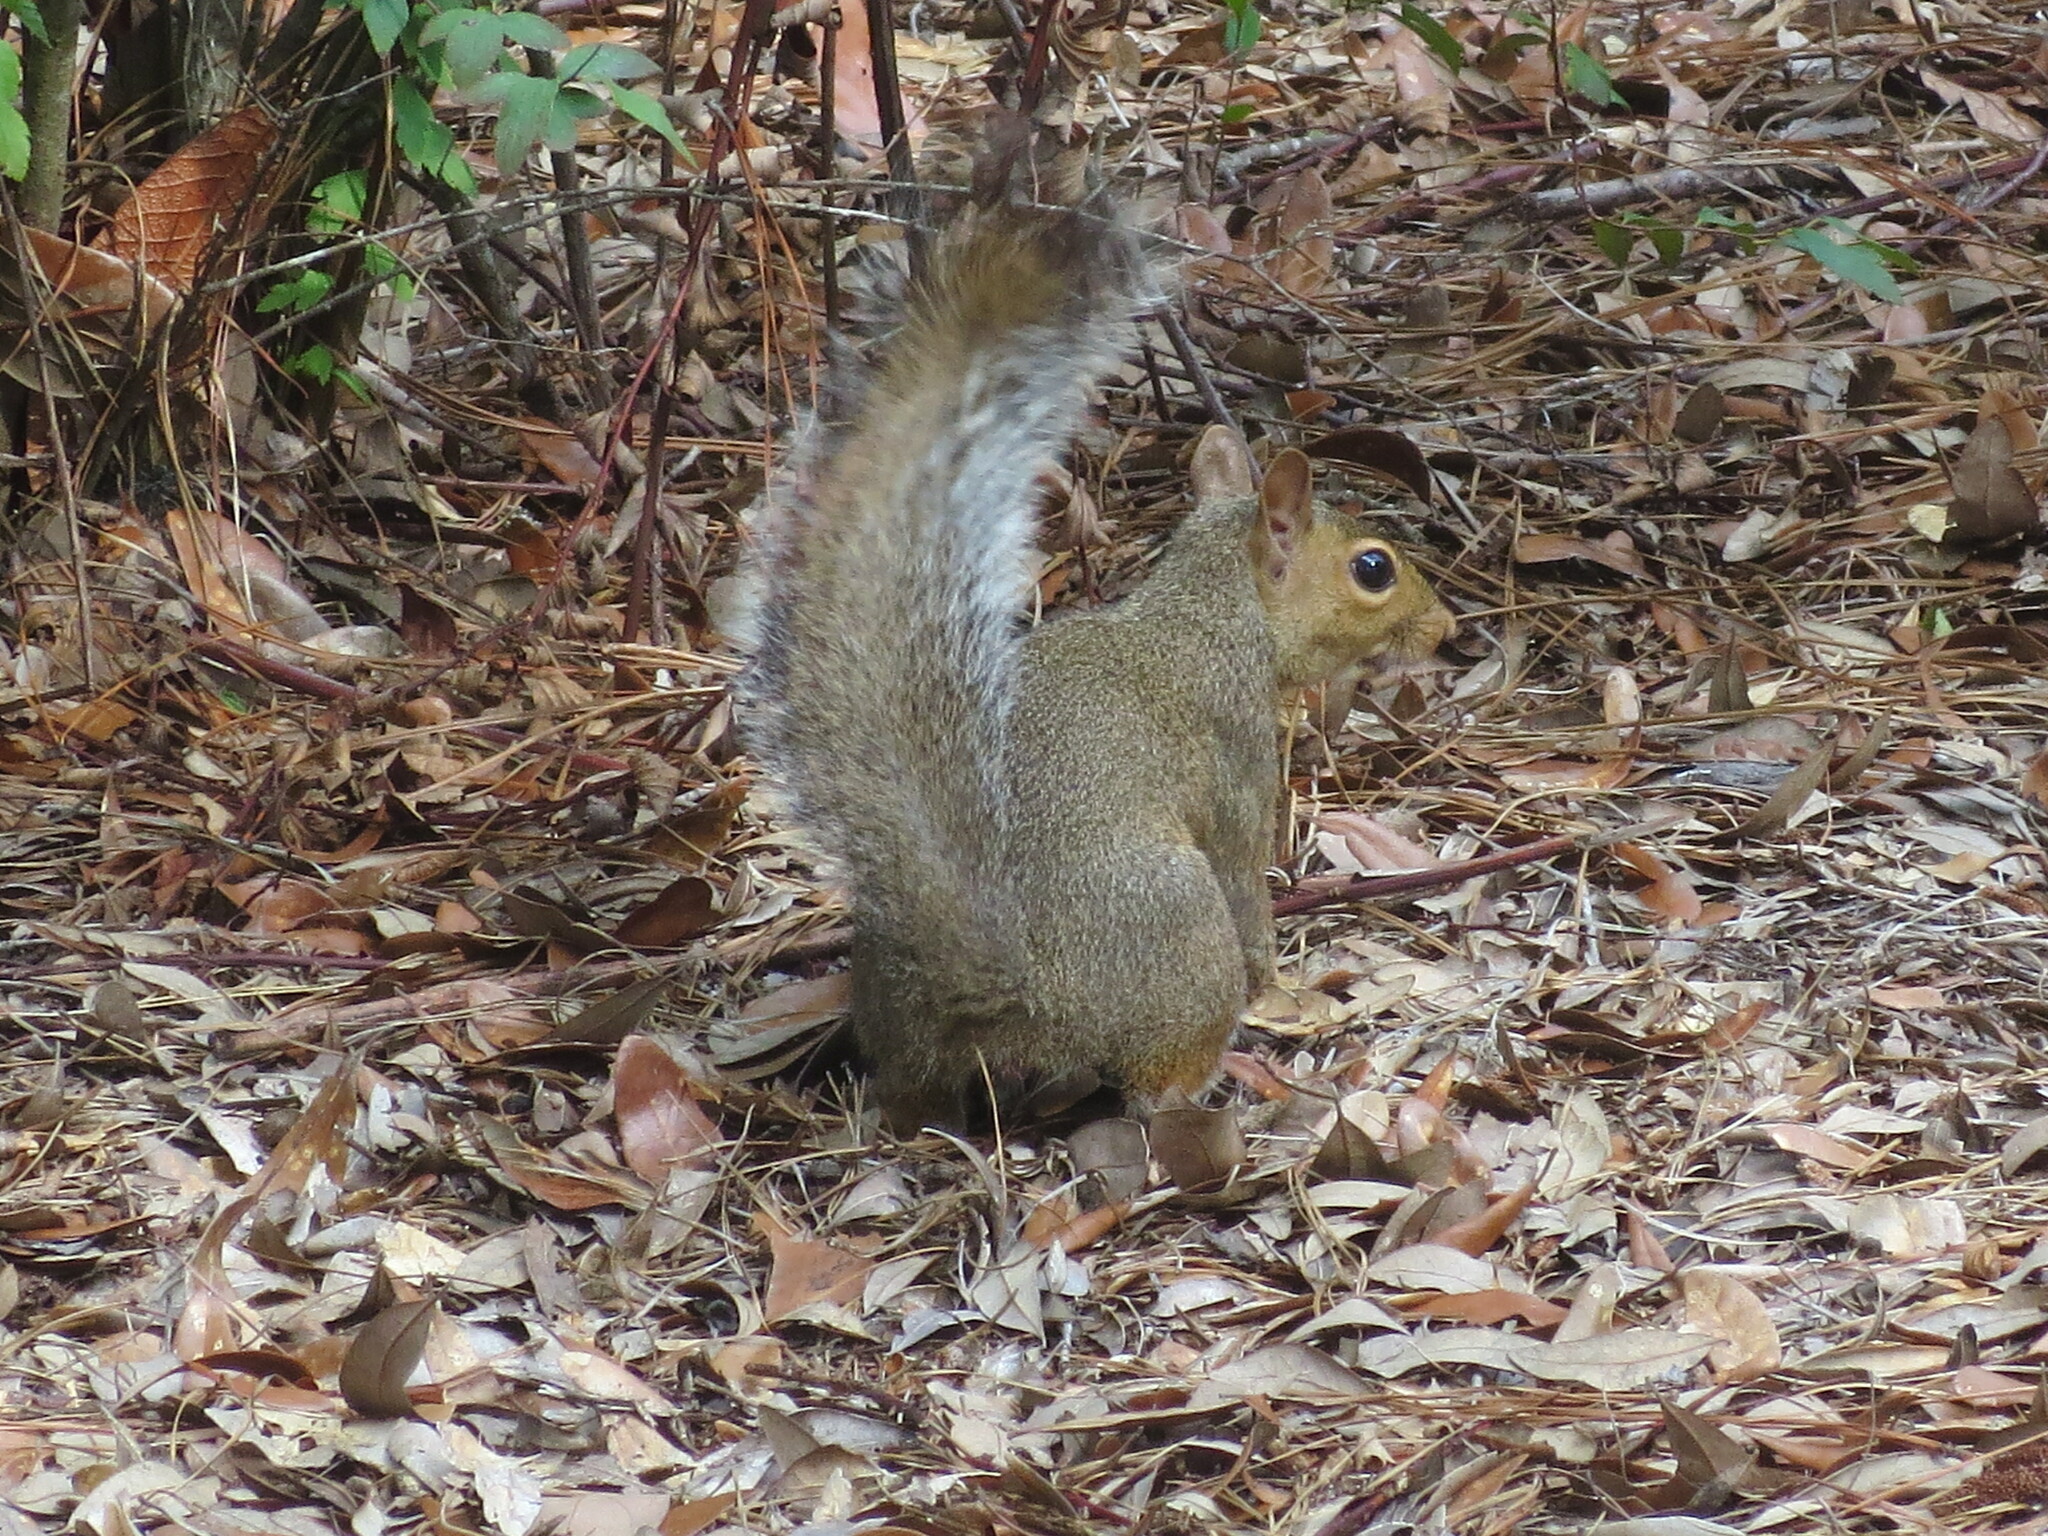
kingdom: Animalia
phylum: Chordata
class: Mammalia
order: Rodentia
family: Sciuridae
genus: Sciurus
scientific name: Sciurus carolinensis
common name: Eastern gray squirrel
